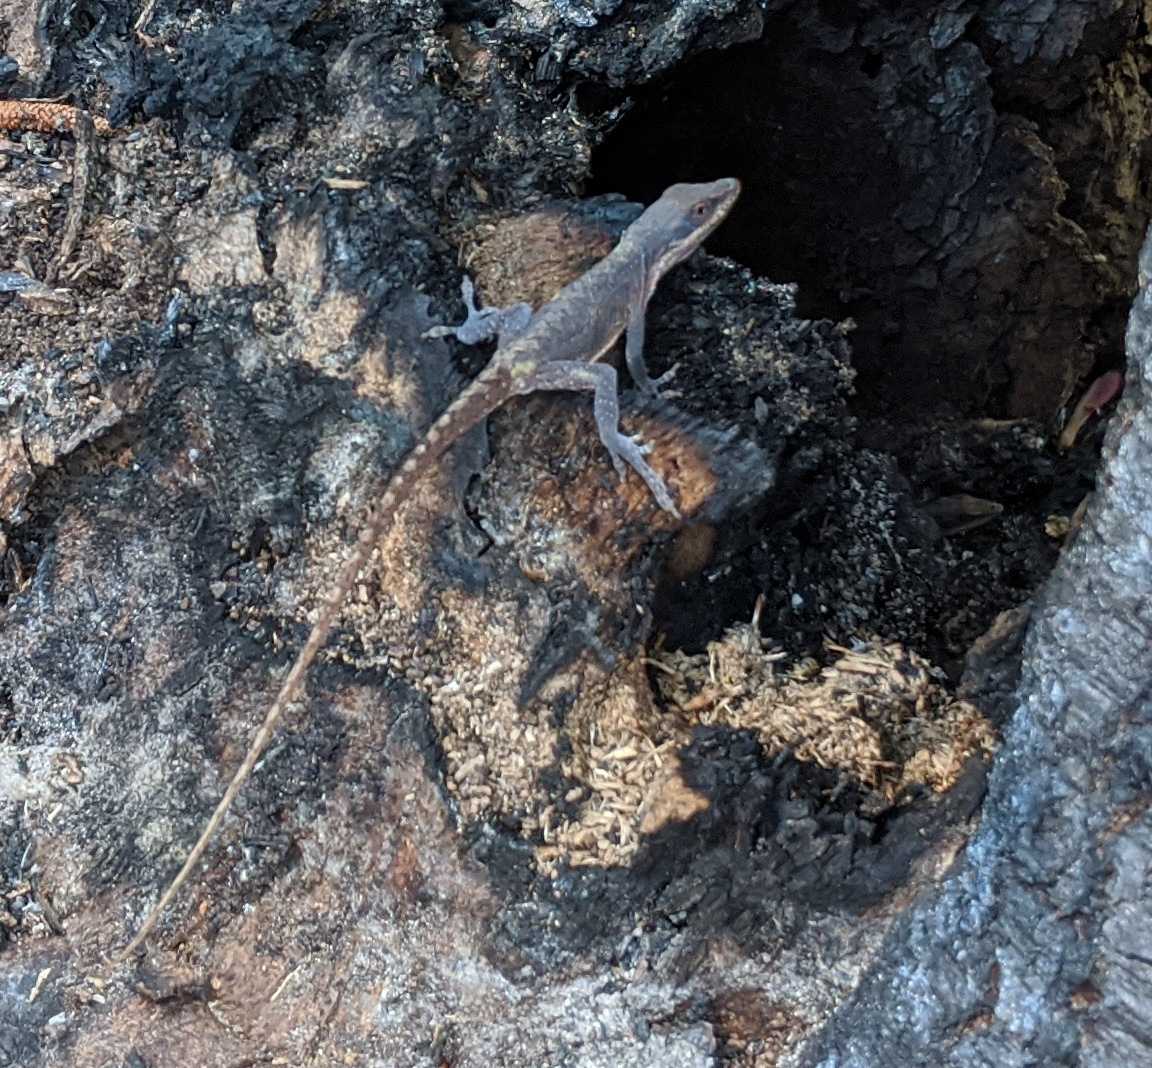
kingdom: Animalia
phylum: Chordata
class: Squamata
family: Dactyloidae
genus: Anolis
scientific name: Anolis carolinensis
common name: Green anole
